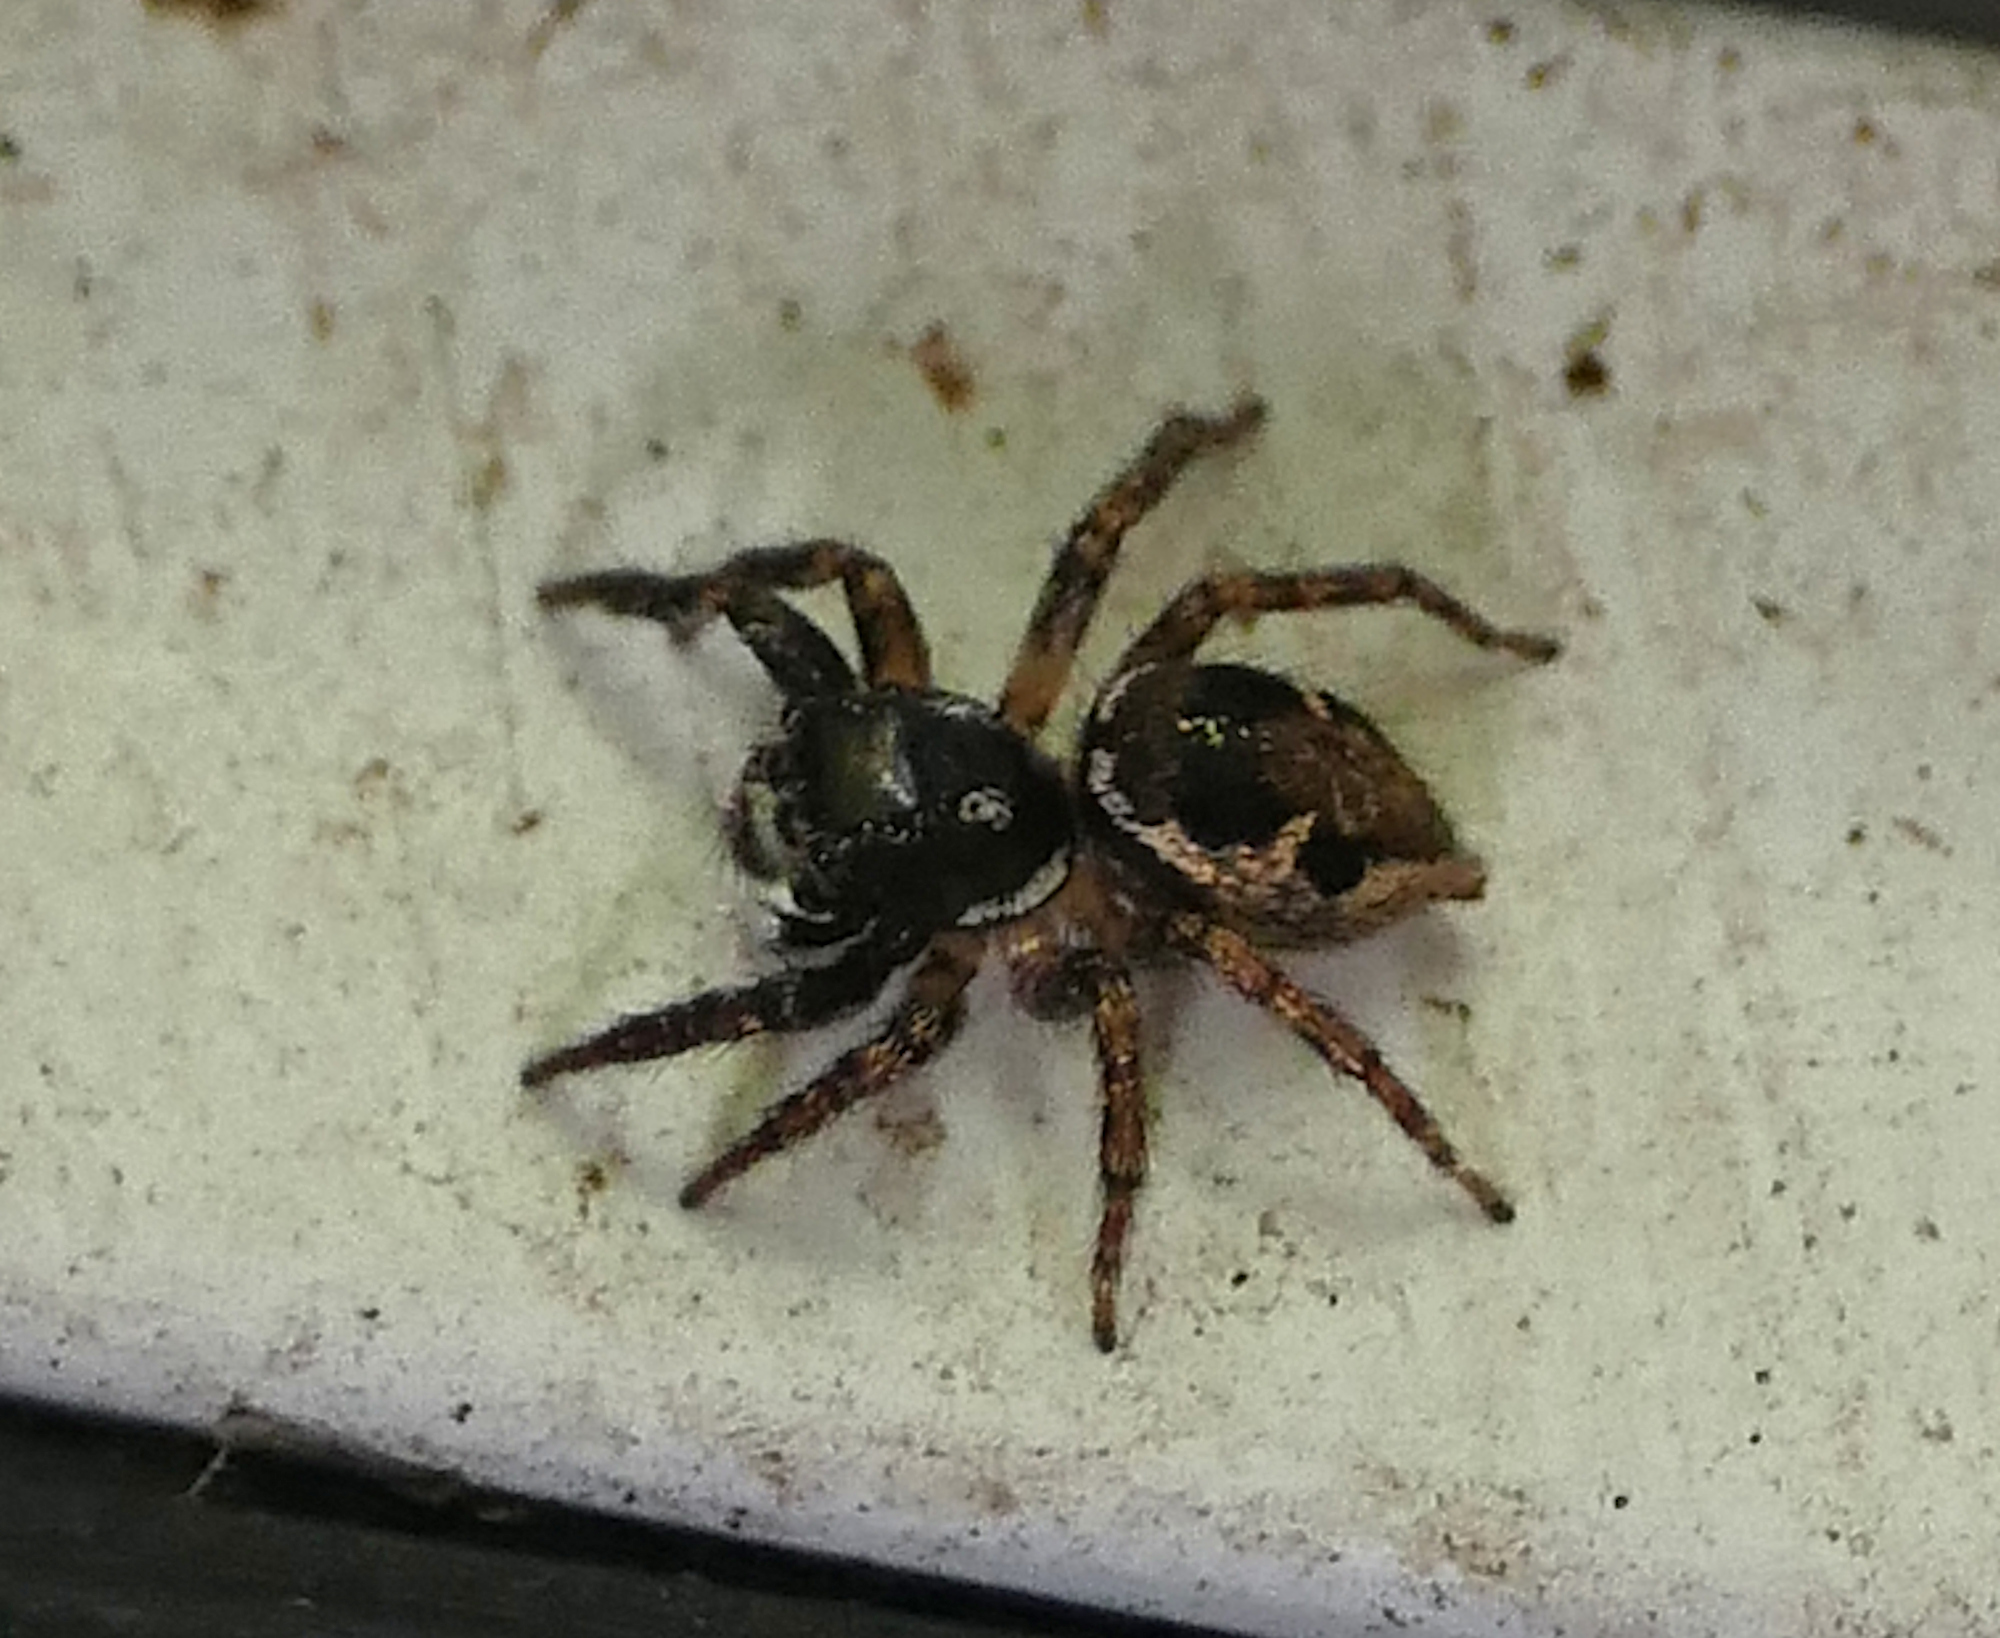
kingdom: Animalia
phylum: Arthropoda
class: Arachnida
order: Araneae
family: Salticidae
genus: Anasaitis
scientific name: Anasaitis canosa
